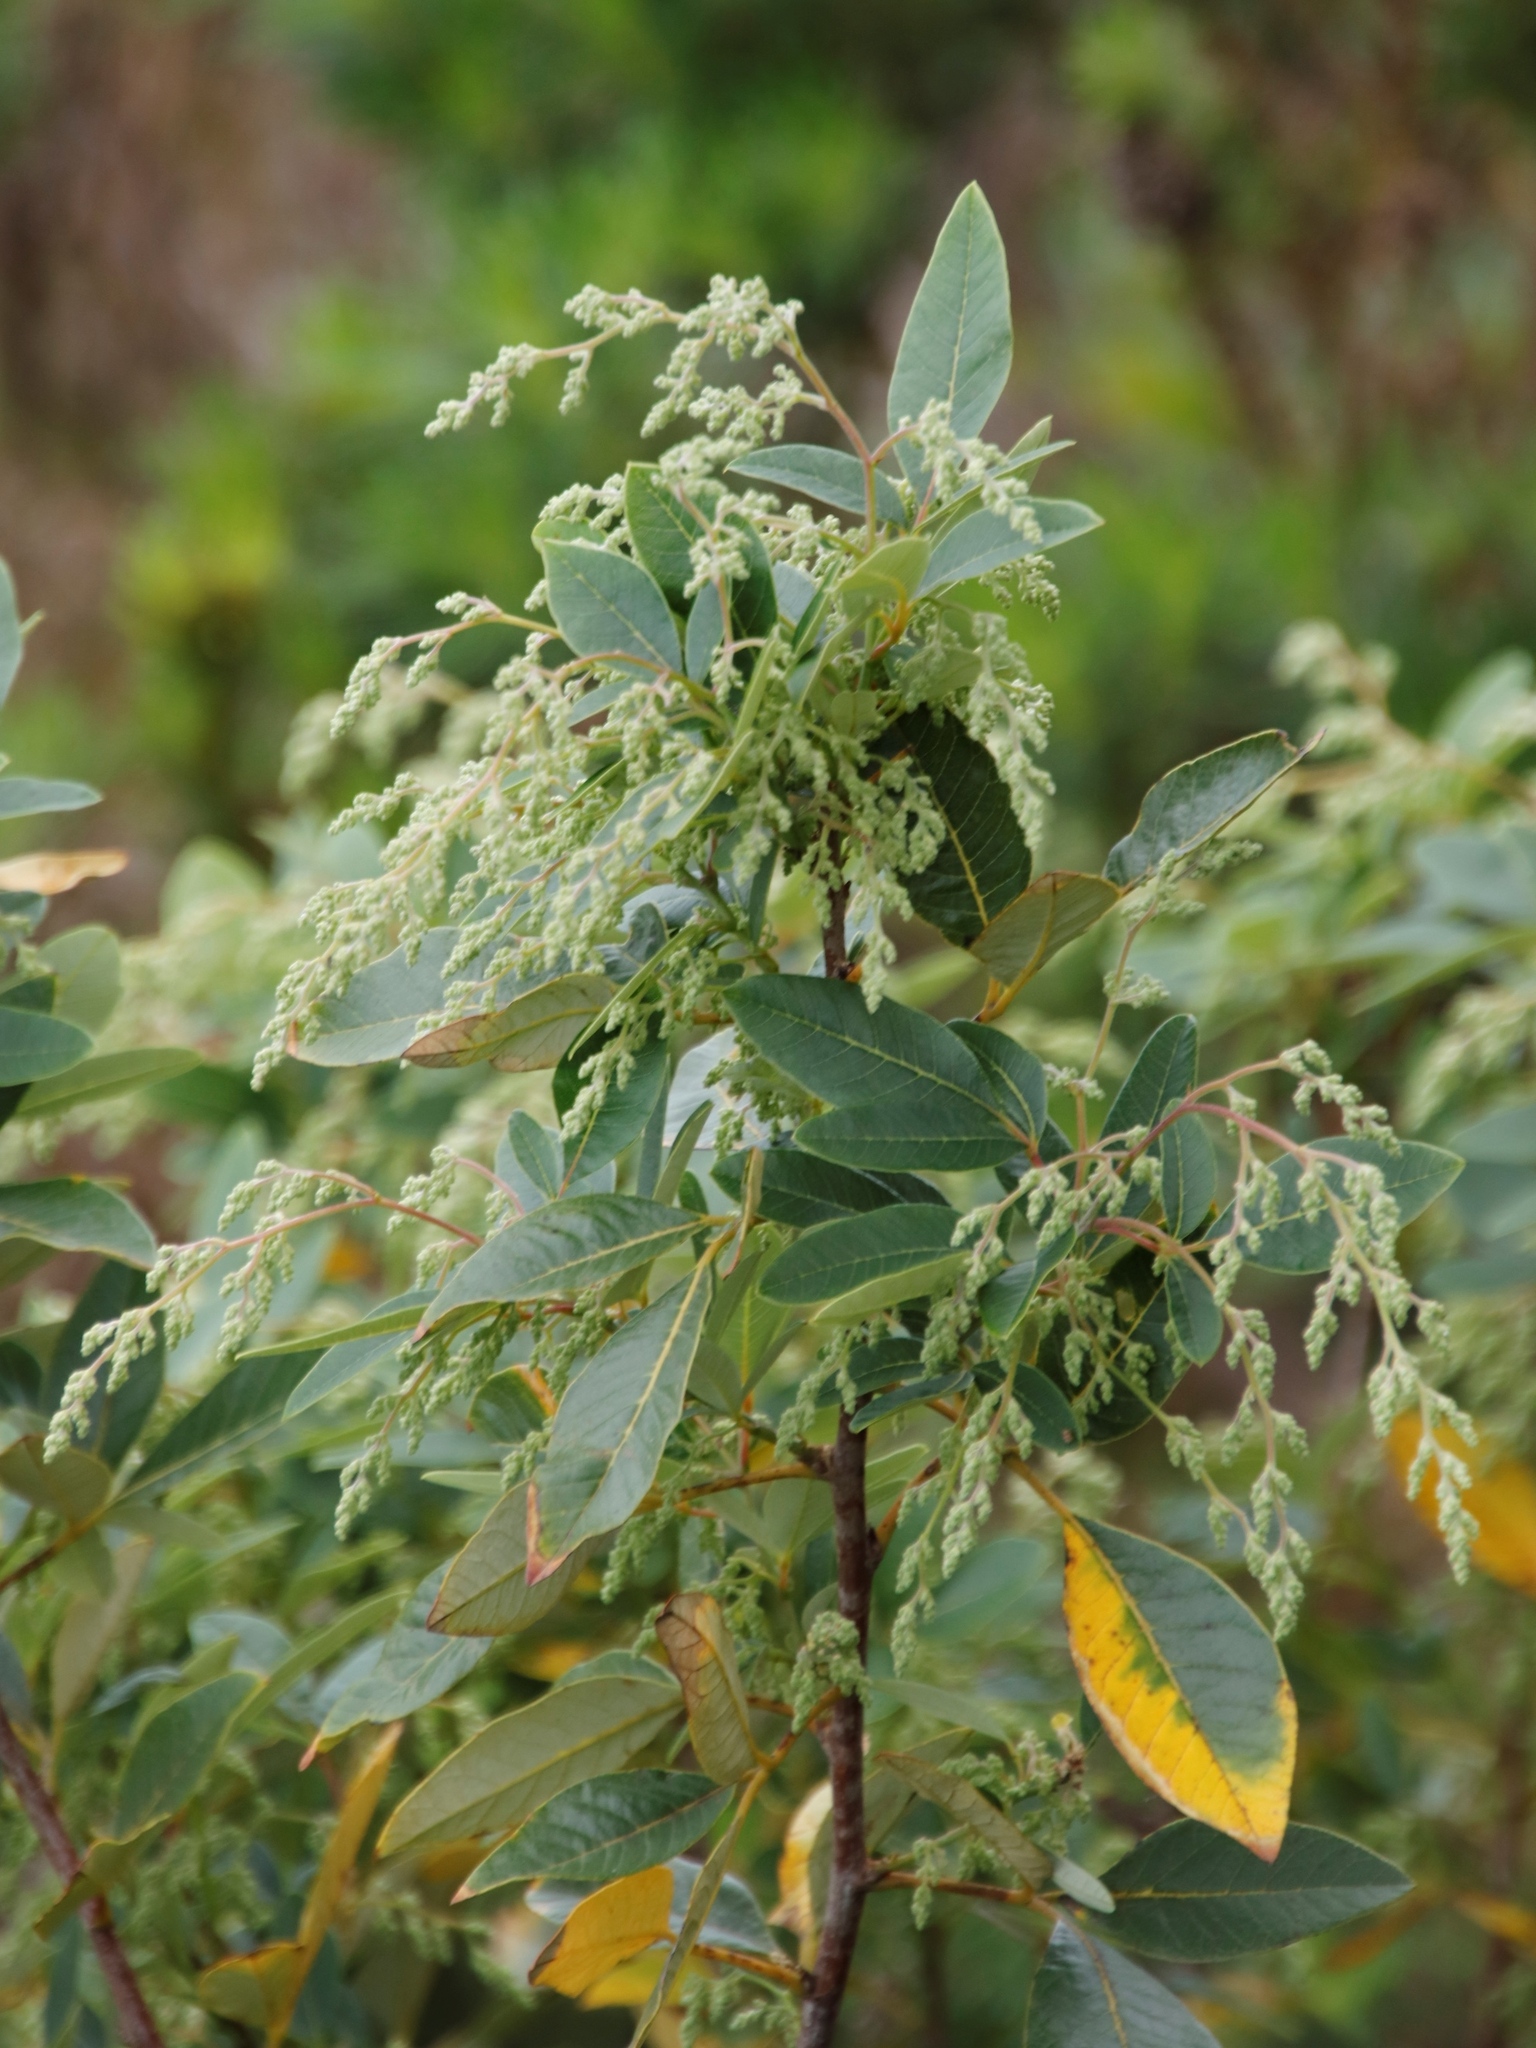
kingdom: Plantae
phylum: Tracheophyta
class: Magnoliopsida
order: Sapindales
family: Anacardiaceae
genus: Searsia
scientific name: Searsia tomentosa
